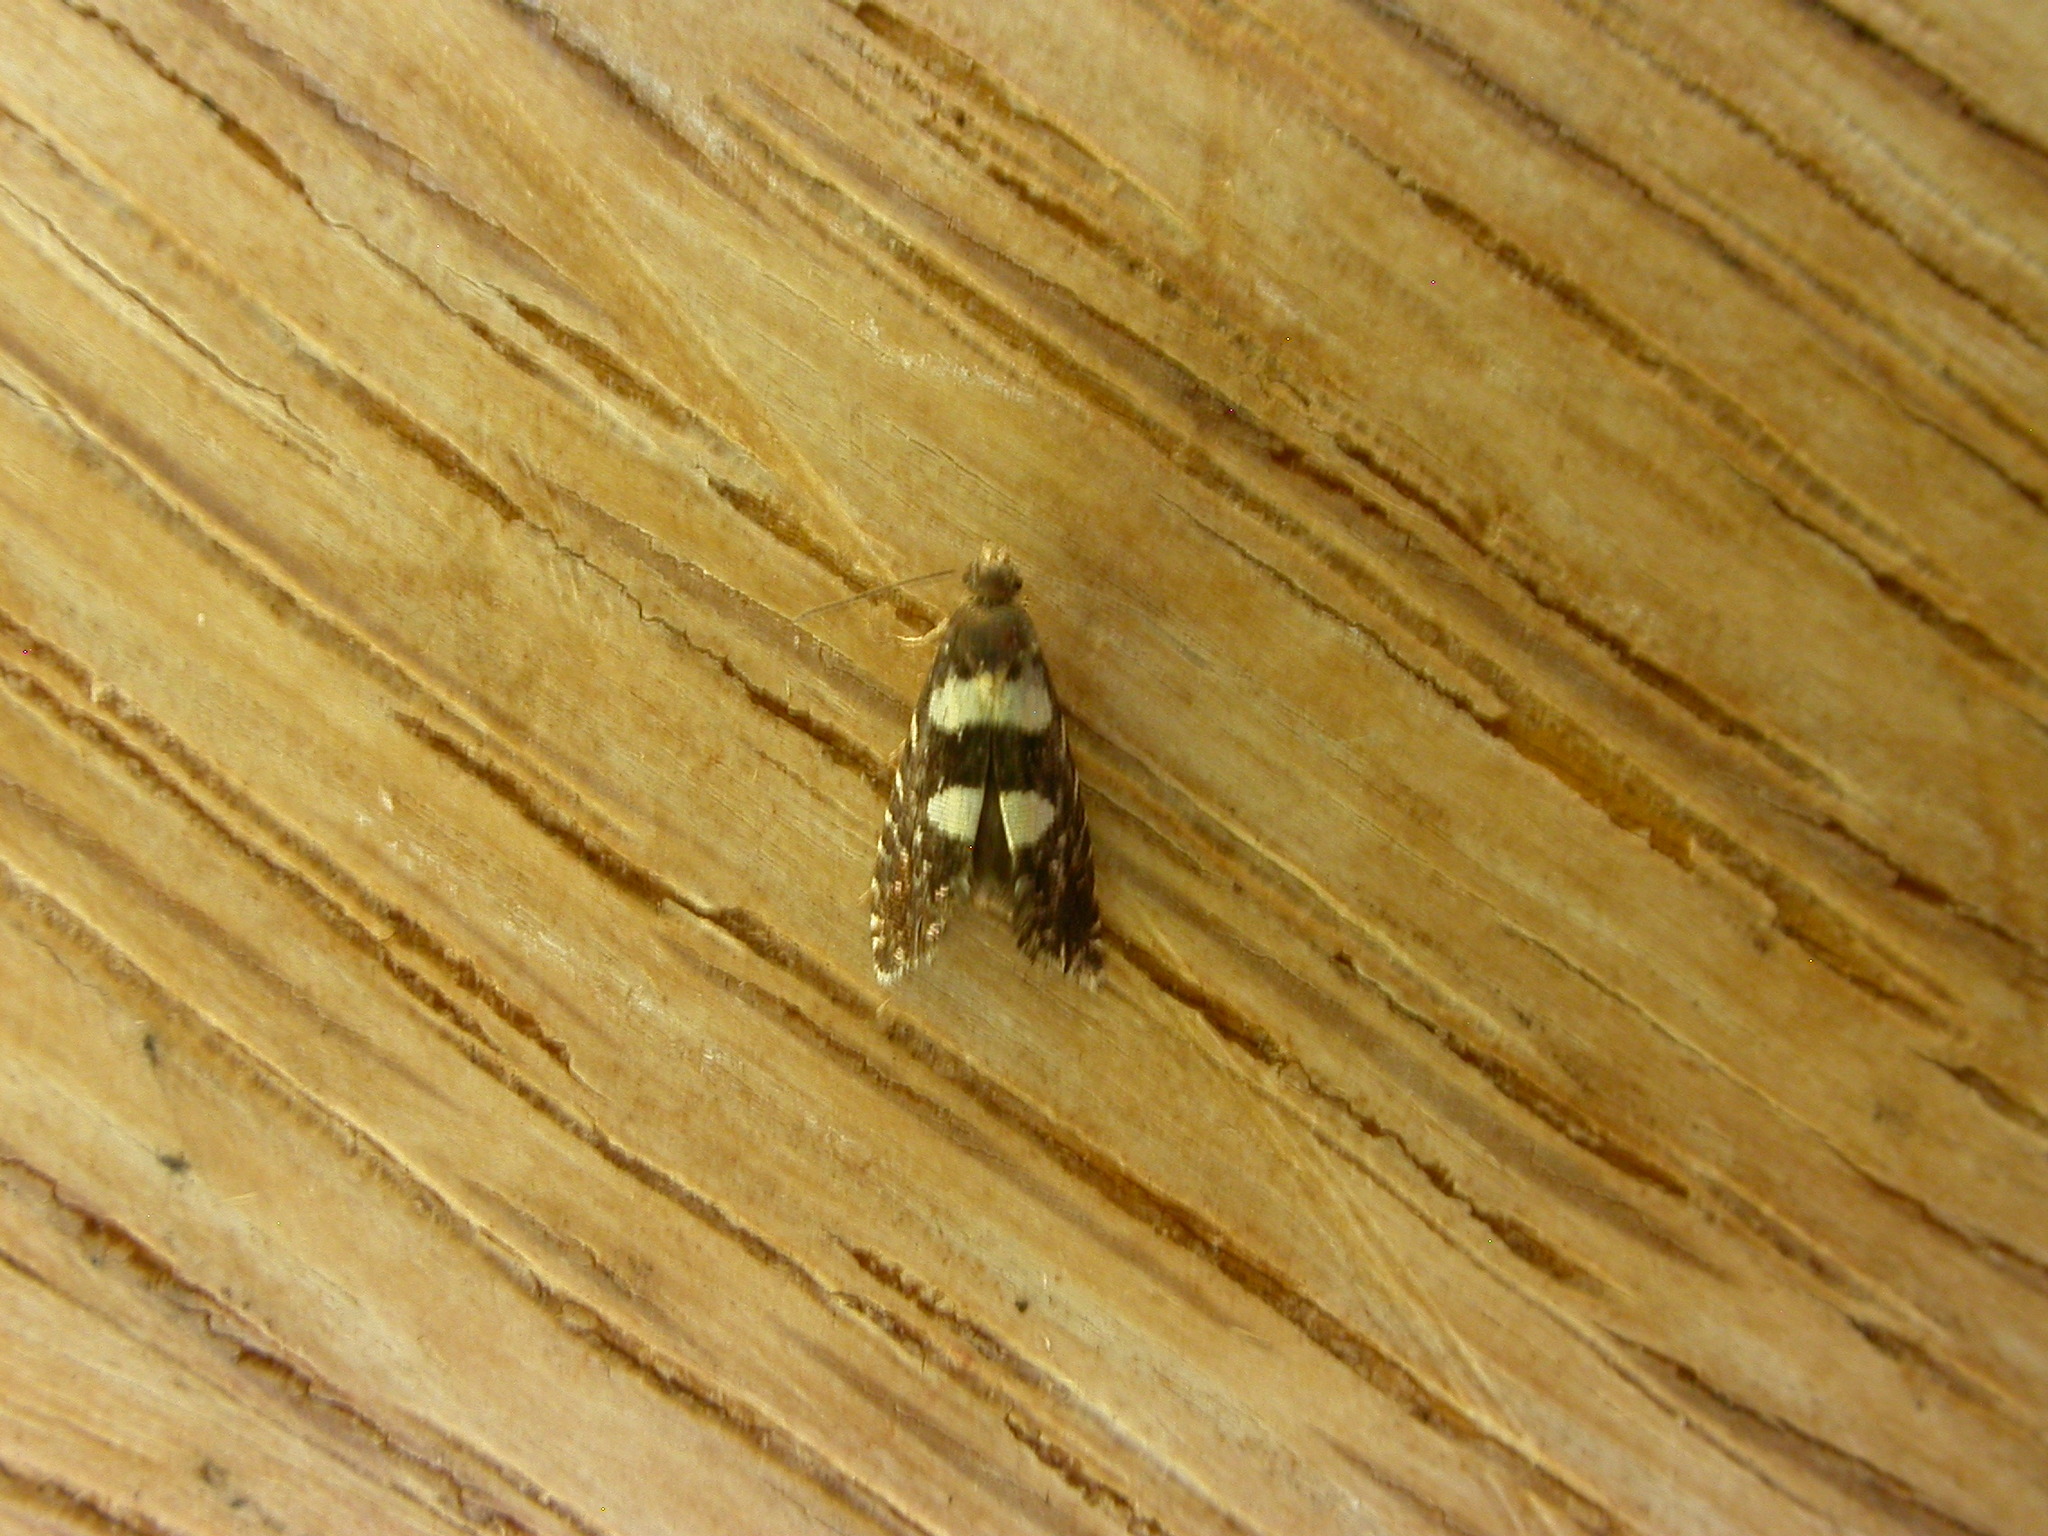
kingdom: Animalia
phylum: Arthropoda
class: Insecta
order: Lepidoptera
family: Glyphipterigidae
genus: Glyphipterix
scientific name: Glyphipterix chrysoplanetis
